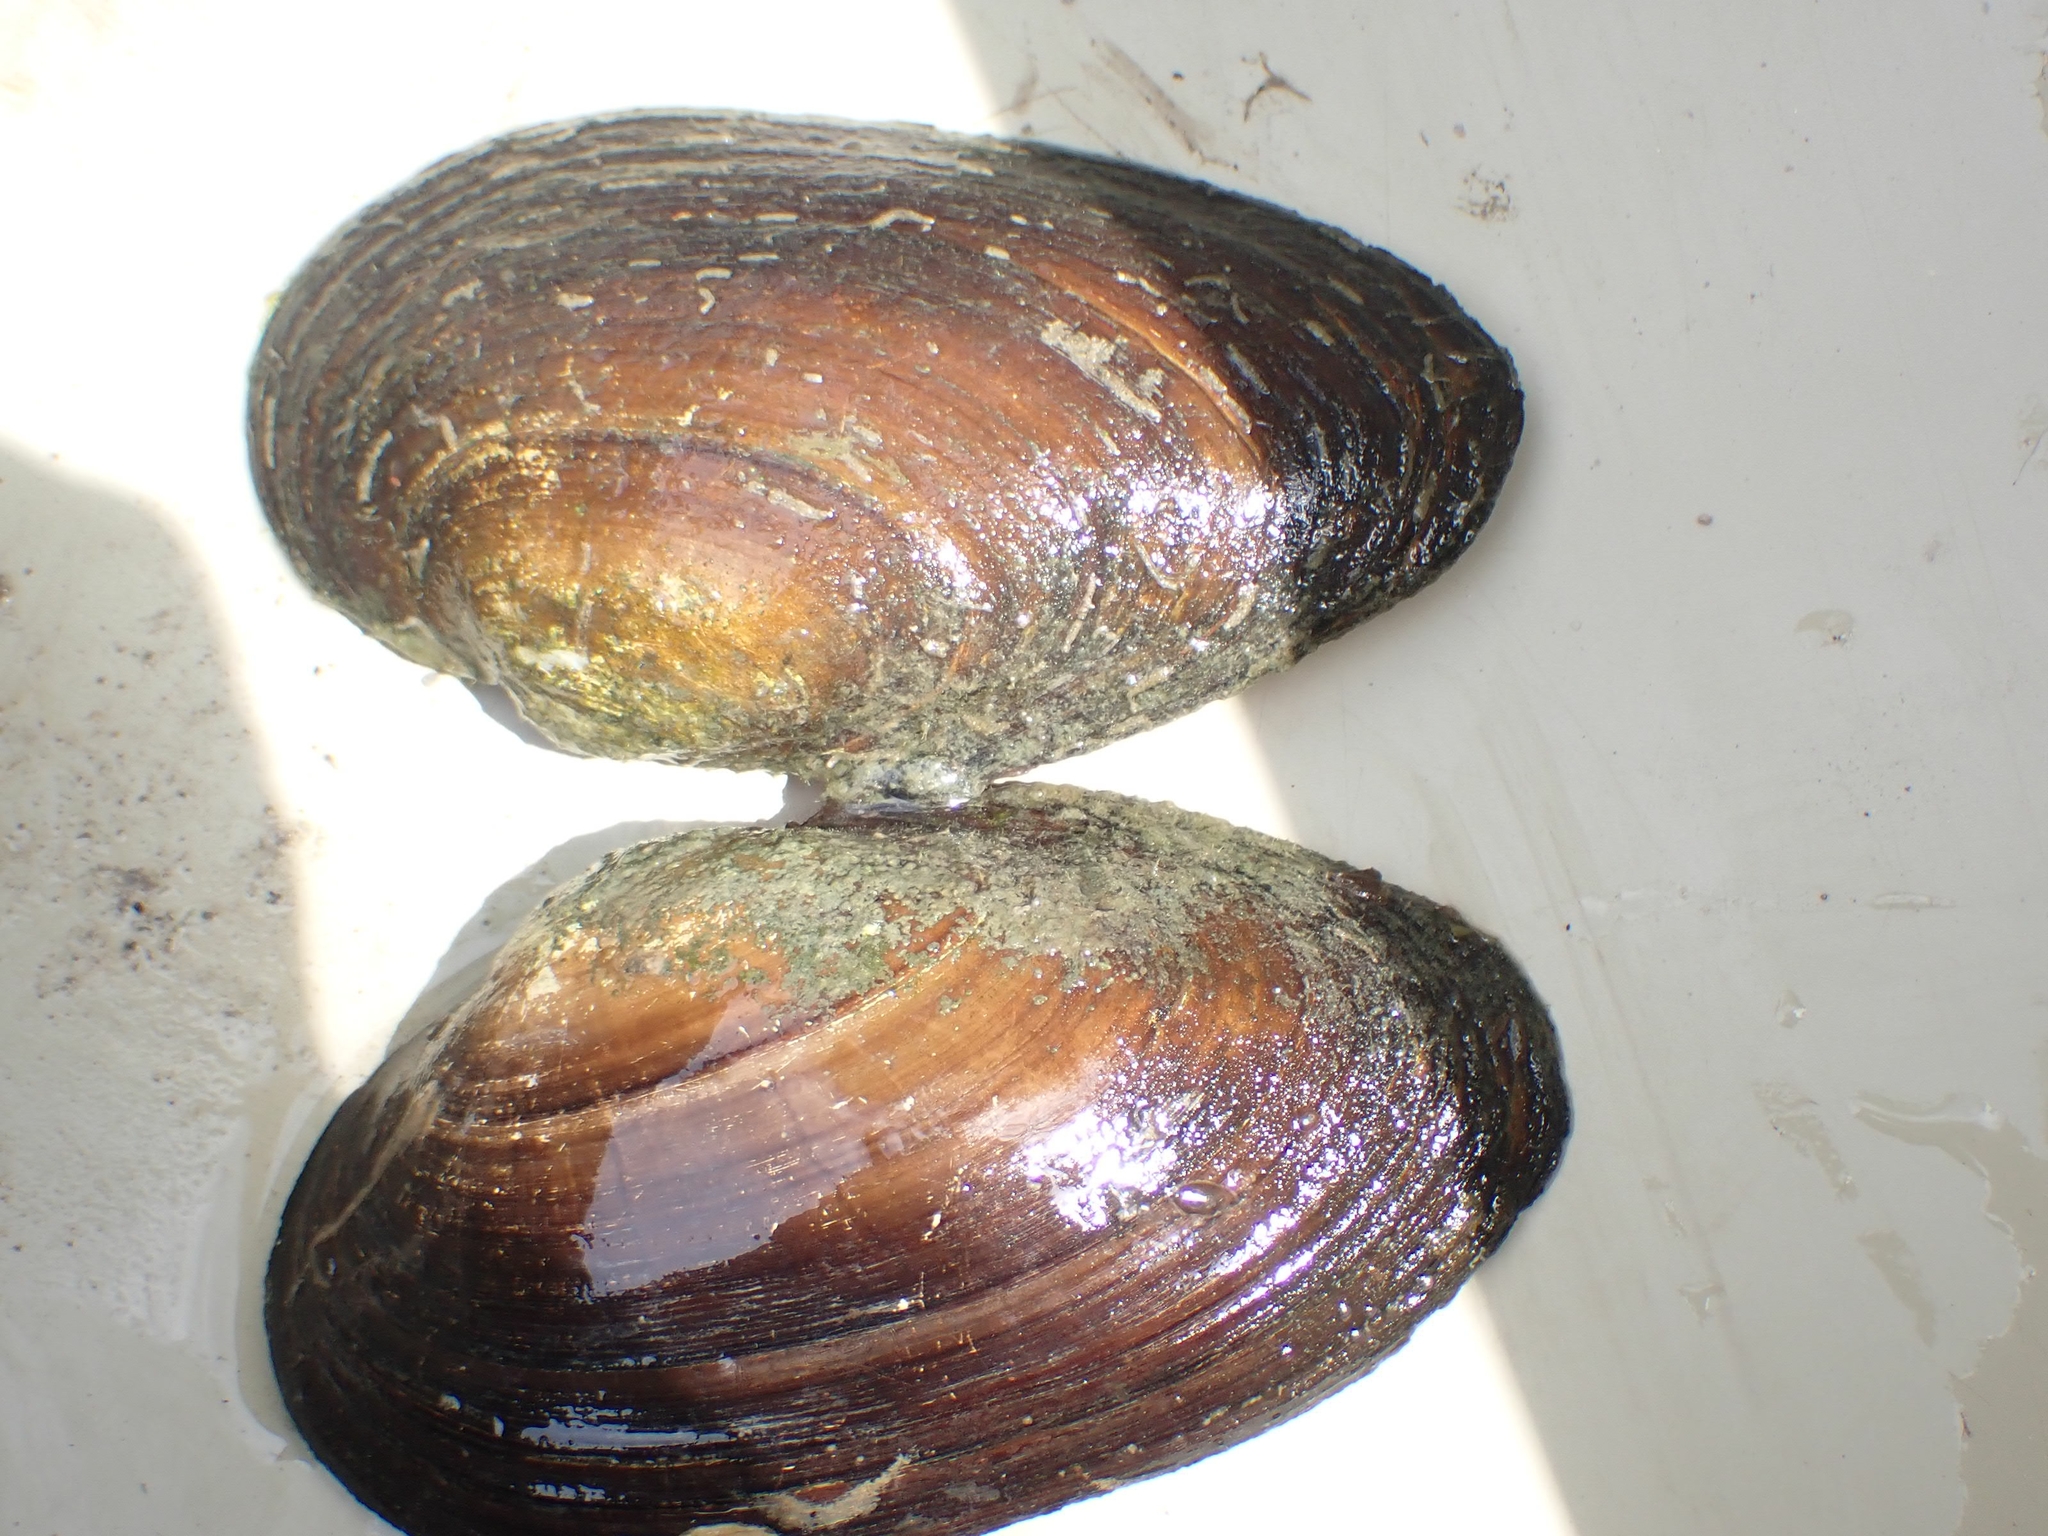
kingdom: Animalia
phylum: Mollusca
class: Bivalvia
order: Unionida
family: Unionidae
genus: Pyganodon
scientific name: Pyganodon grandis
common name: Giant floater
